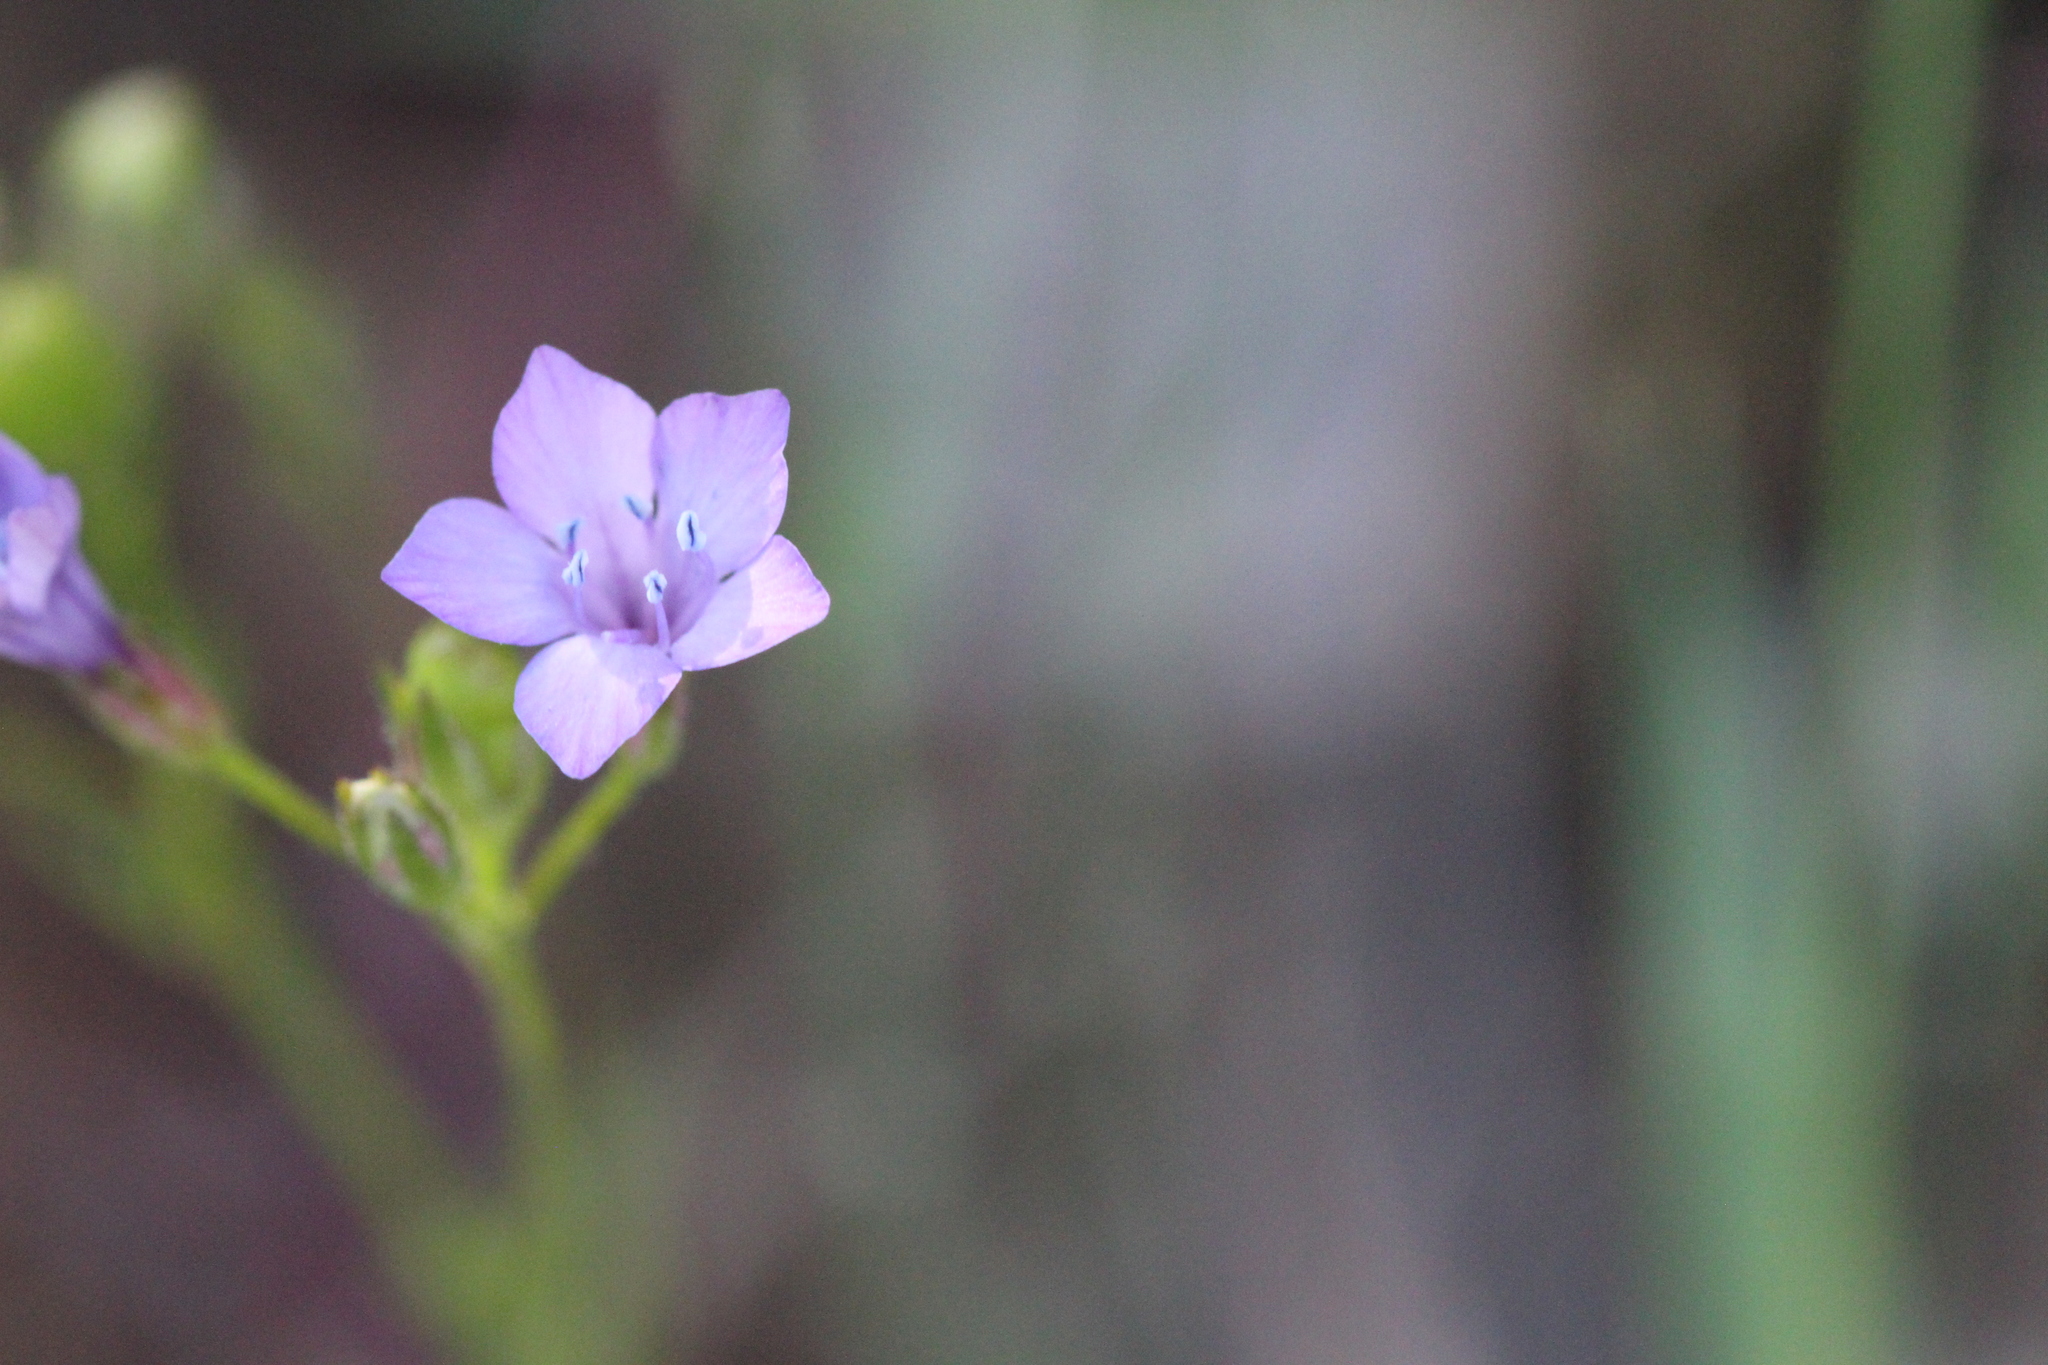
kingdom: Plantae
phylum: Tracheophyta
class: Magnoliopsida
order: Ericales
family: Polemoniaceae
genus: Gilia
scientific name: Gilia achilleifolia
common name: California gily-flower
